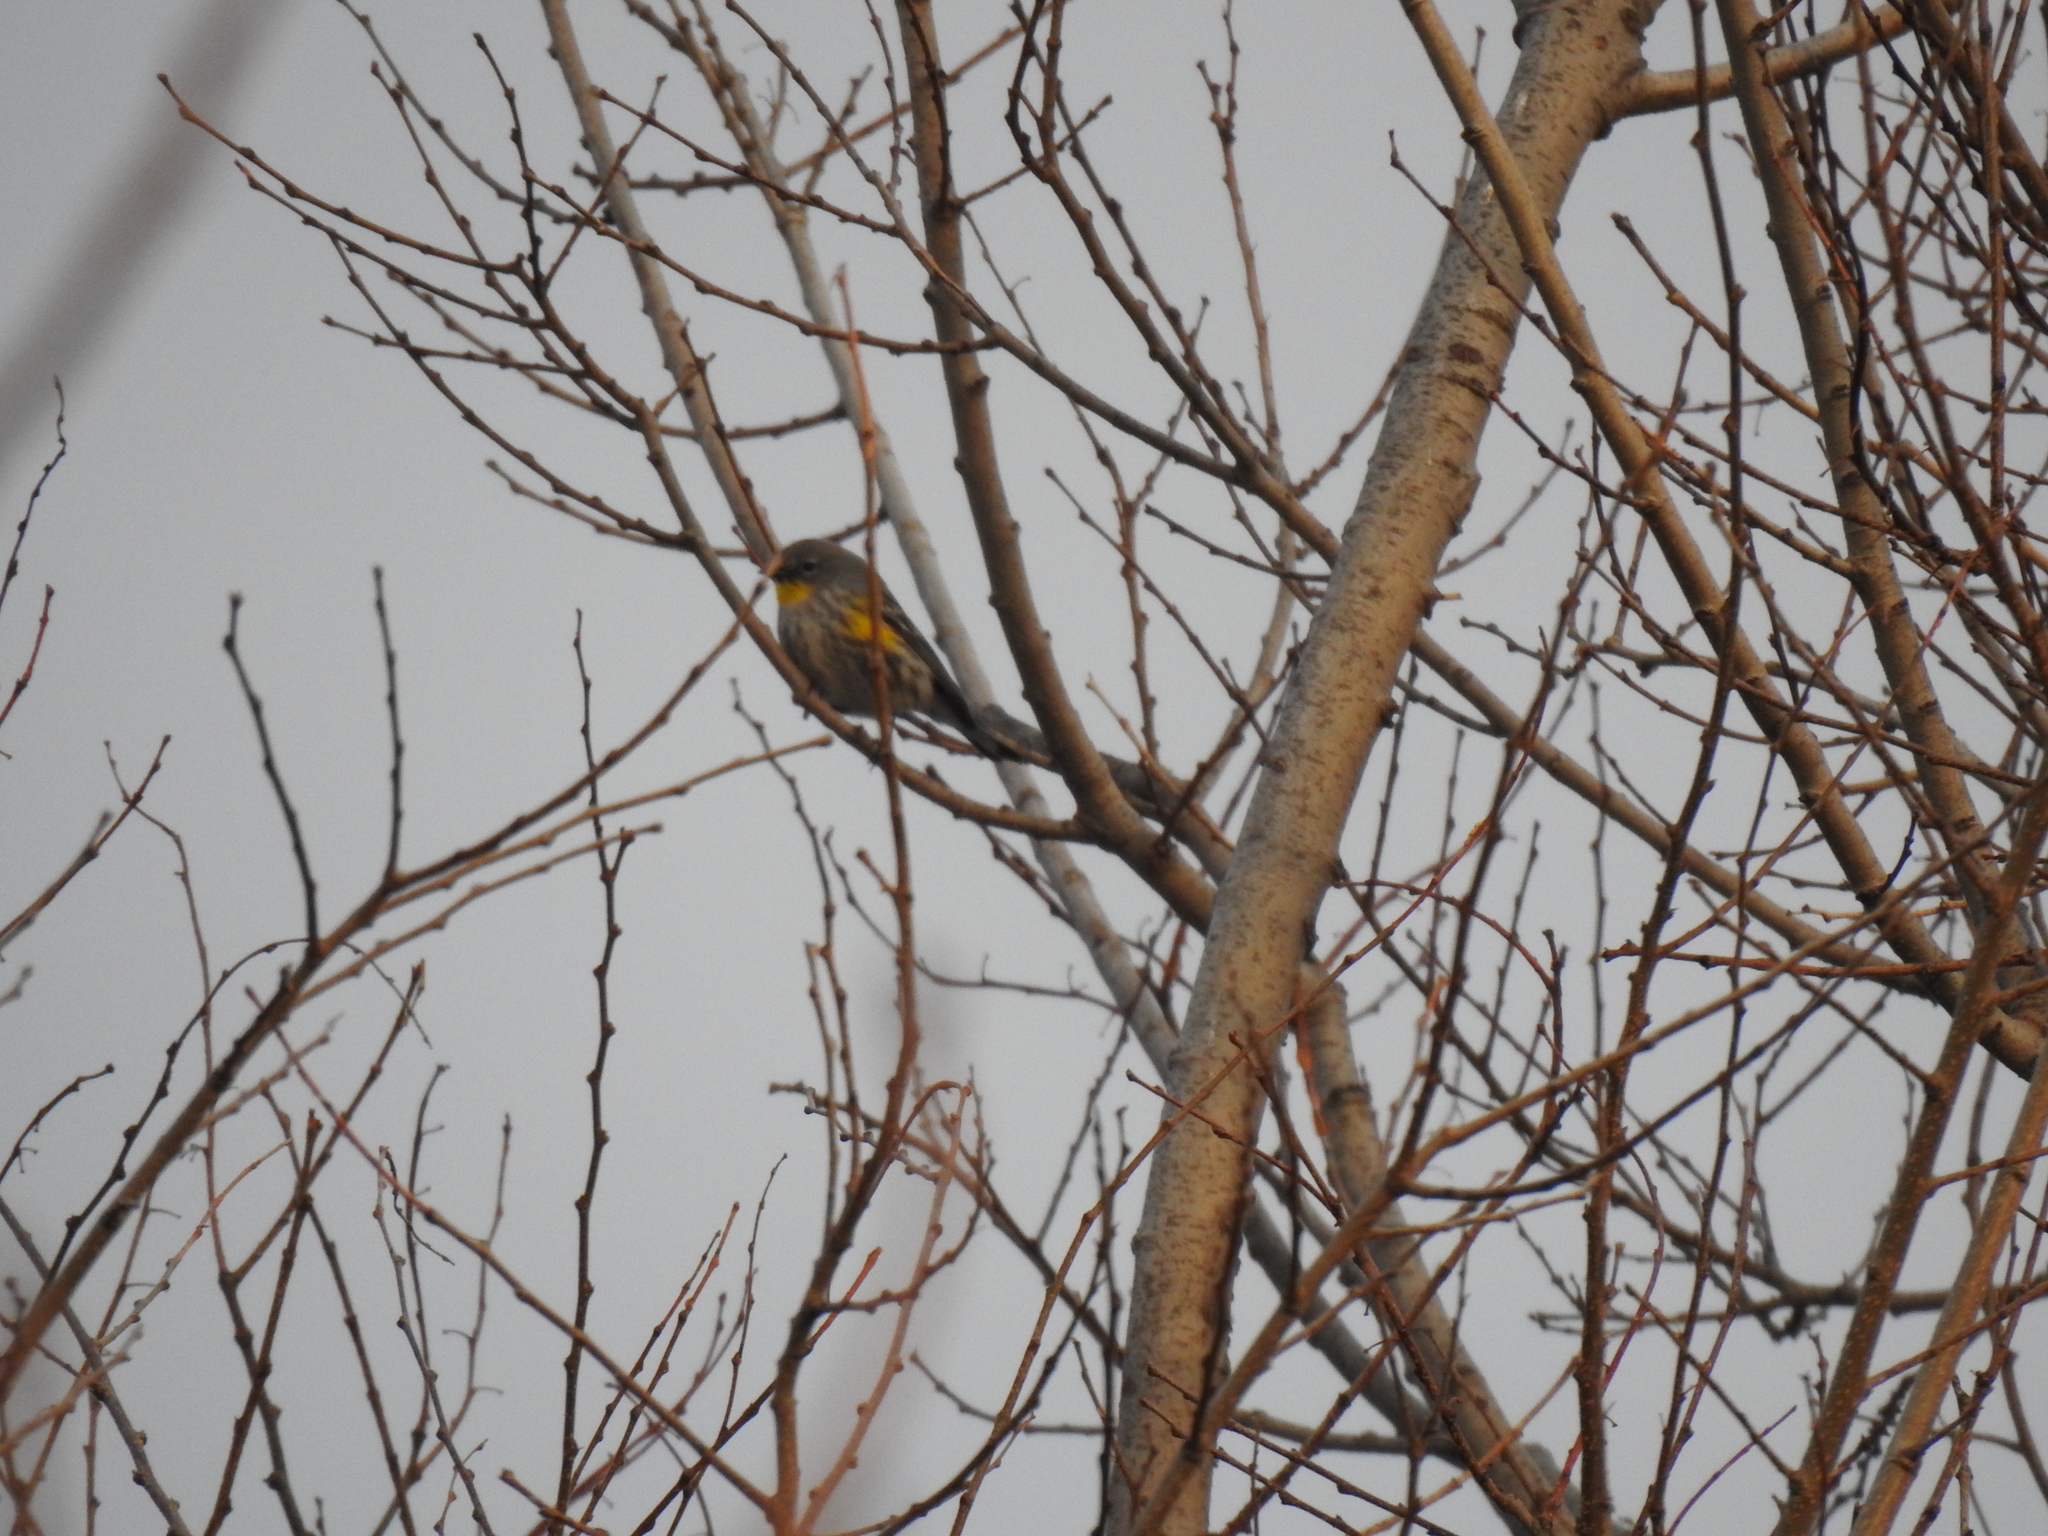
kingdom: Animalia
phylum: Chordata
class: Aves
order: Passeriformes
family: Parulidae
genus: Setophaga
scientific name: Setophaga coronata
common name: Myrtle warbler
